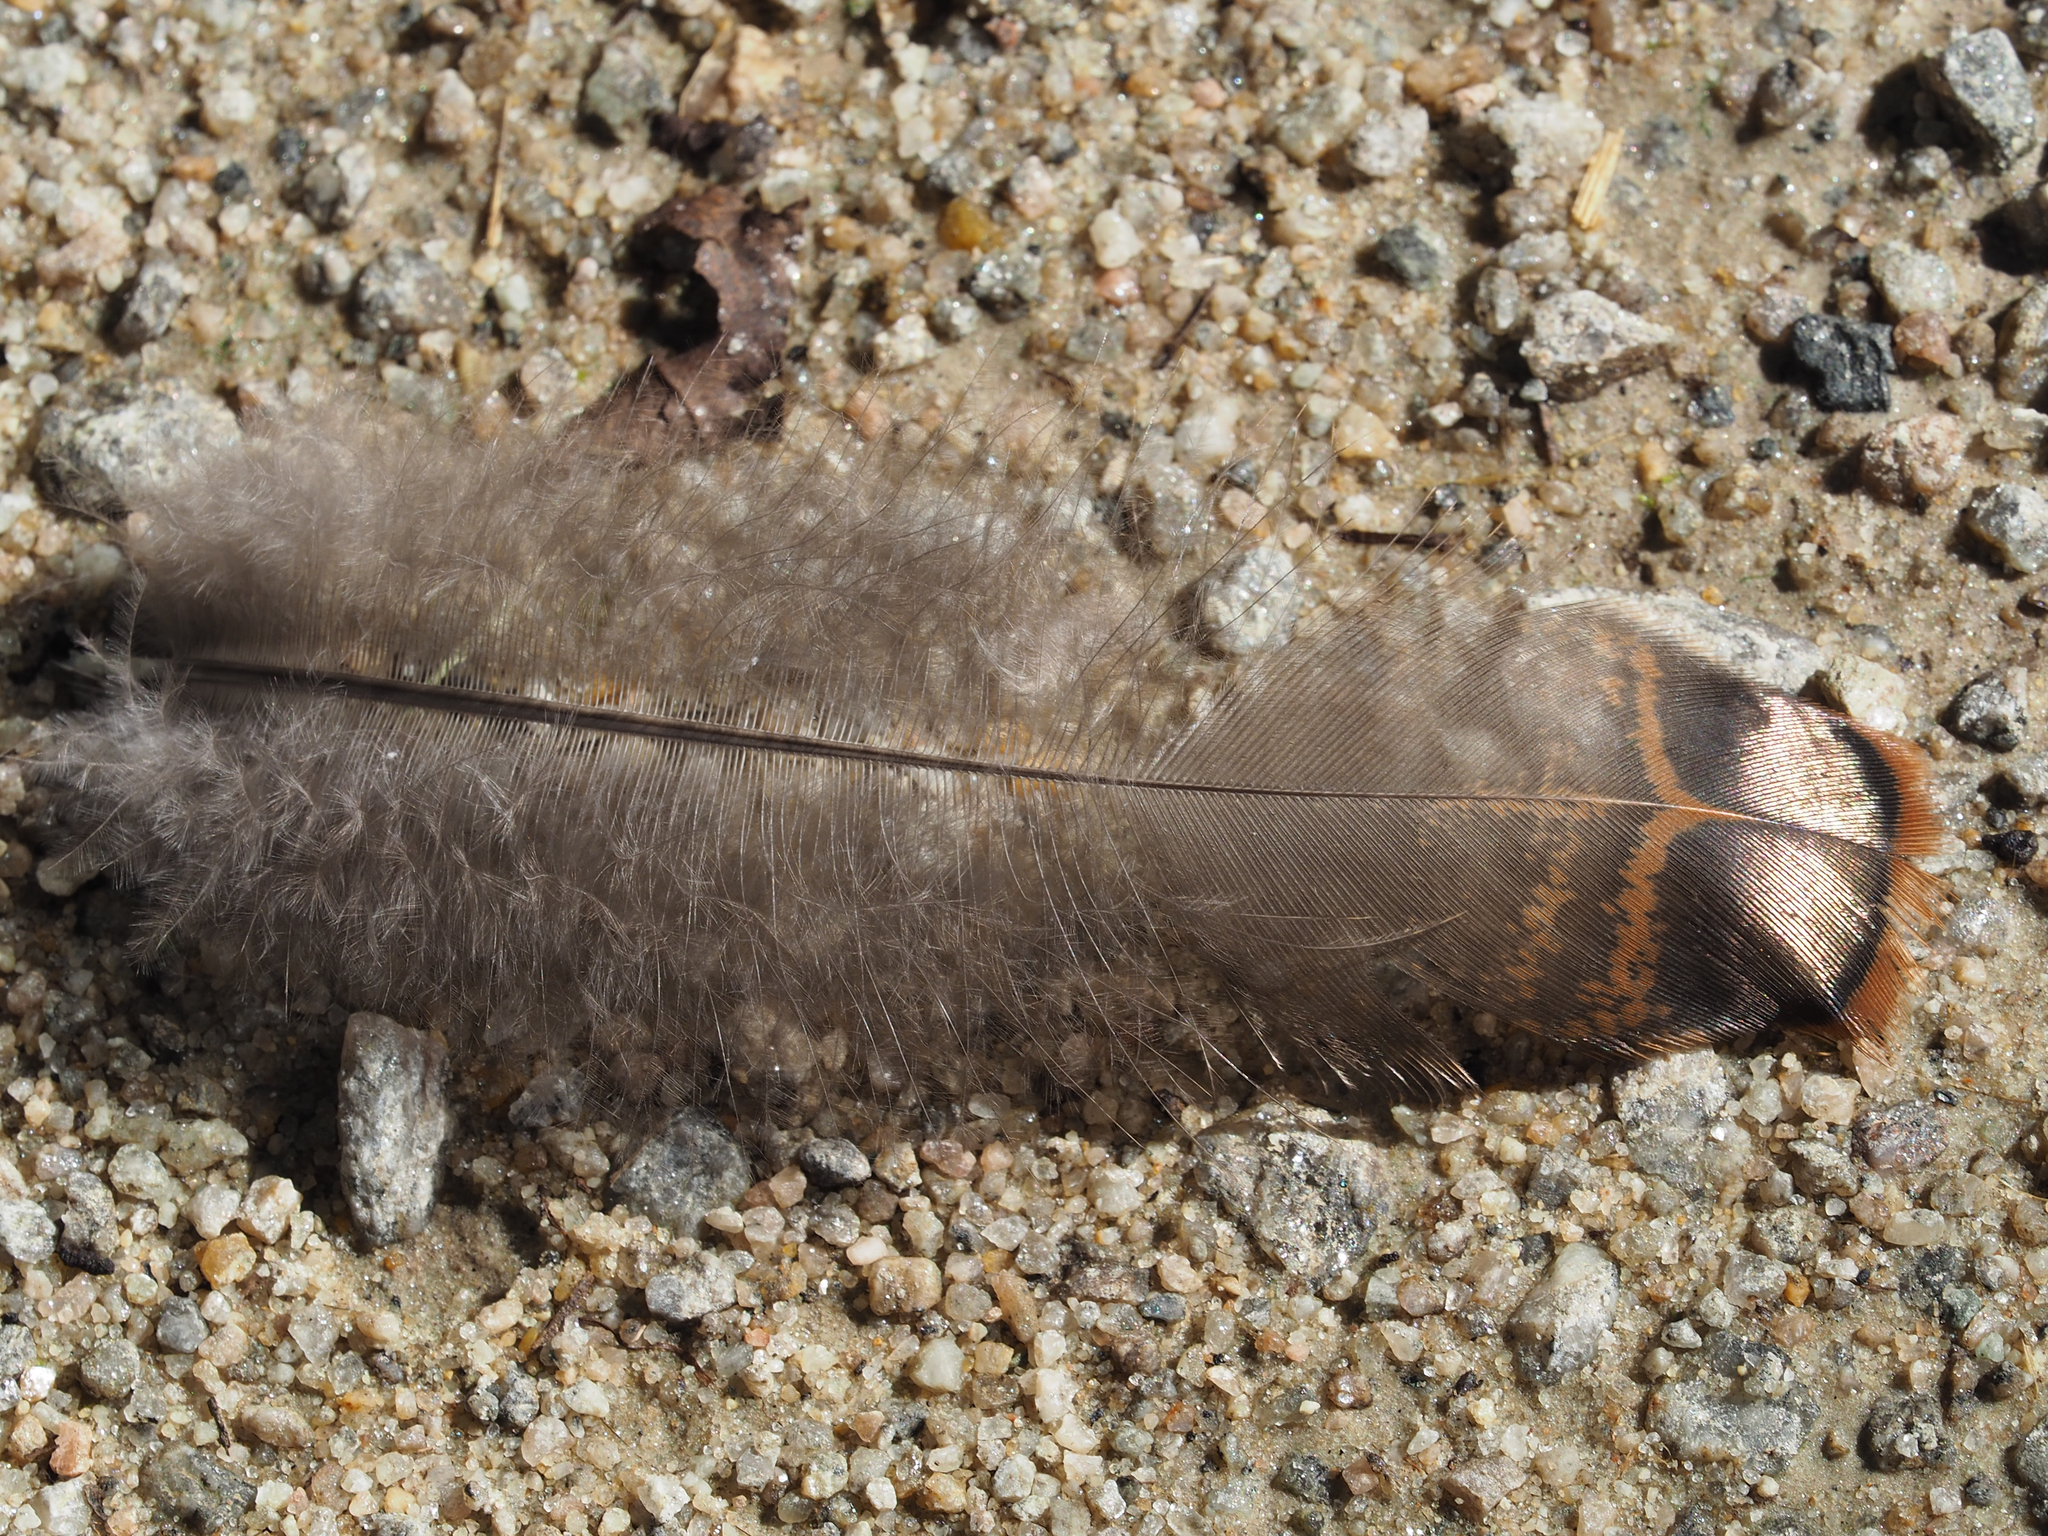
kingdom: Animalia
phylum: Chordata
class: Aves
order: Galliformes
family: Phasianidae
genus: Meleagris
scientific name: Meleagris gallopavo
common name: Wild turkey
